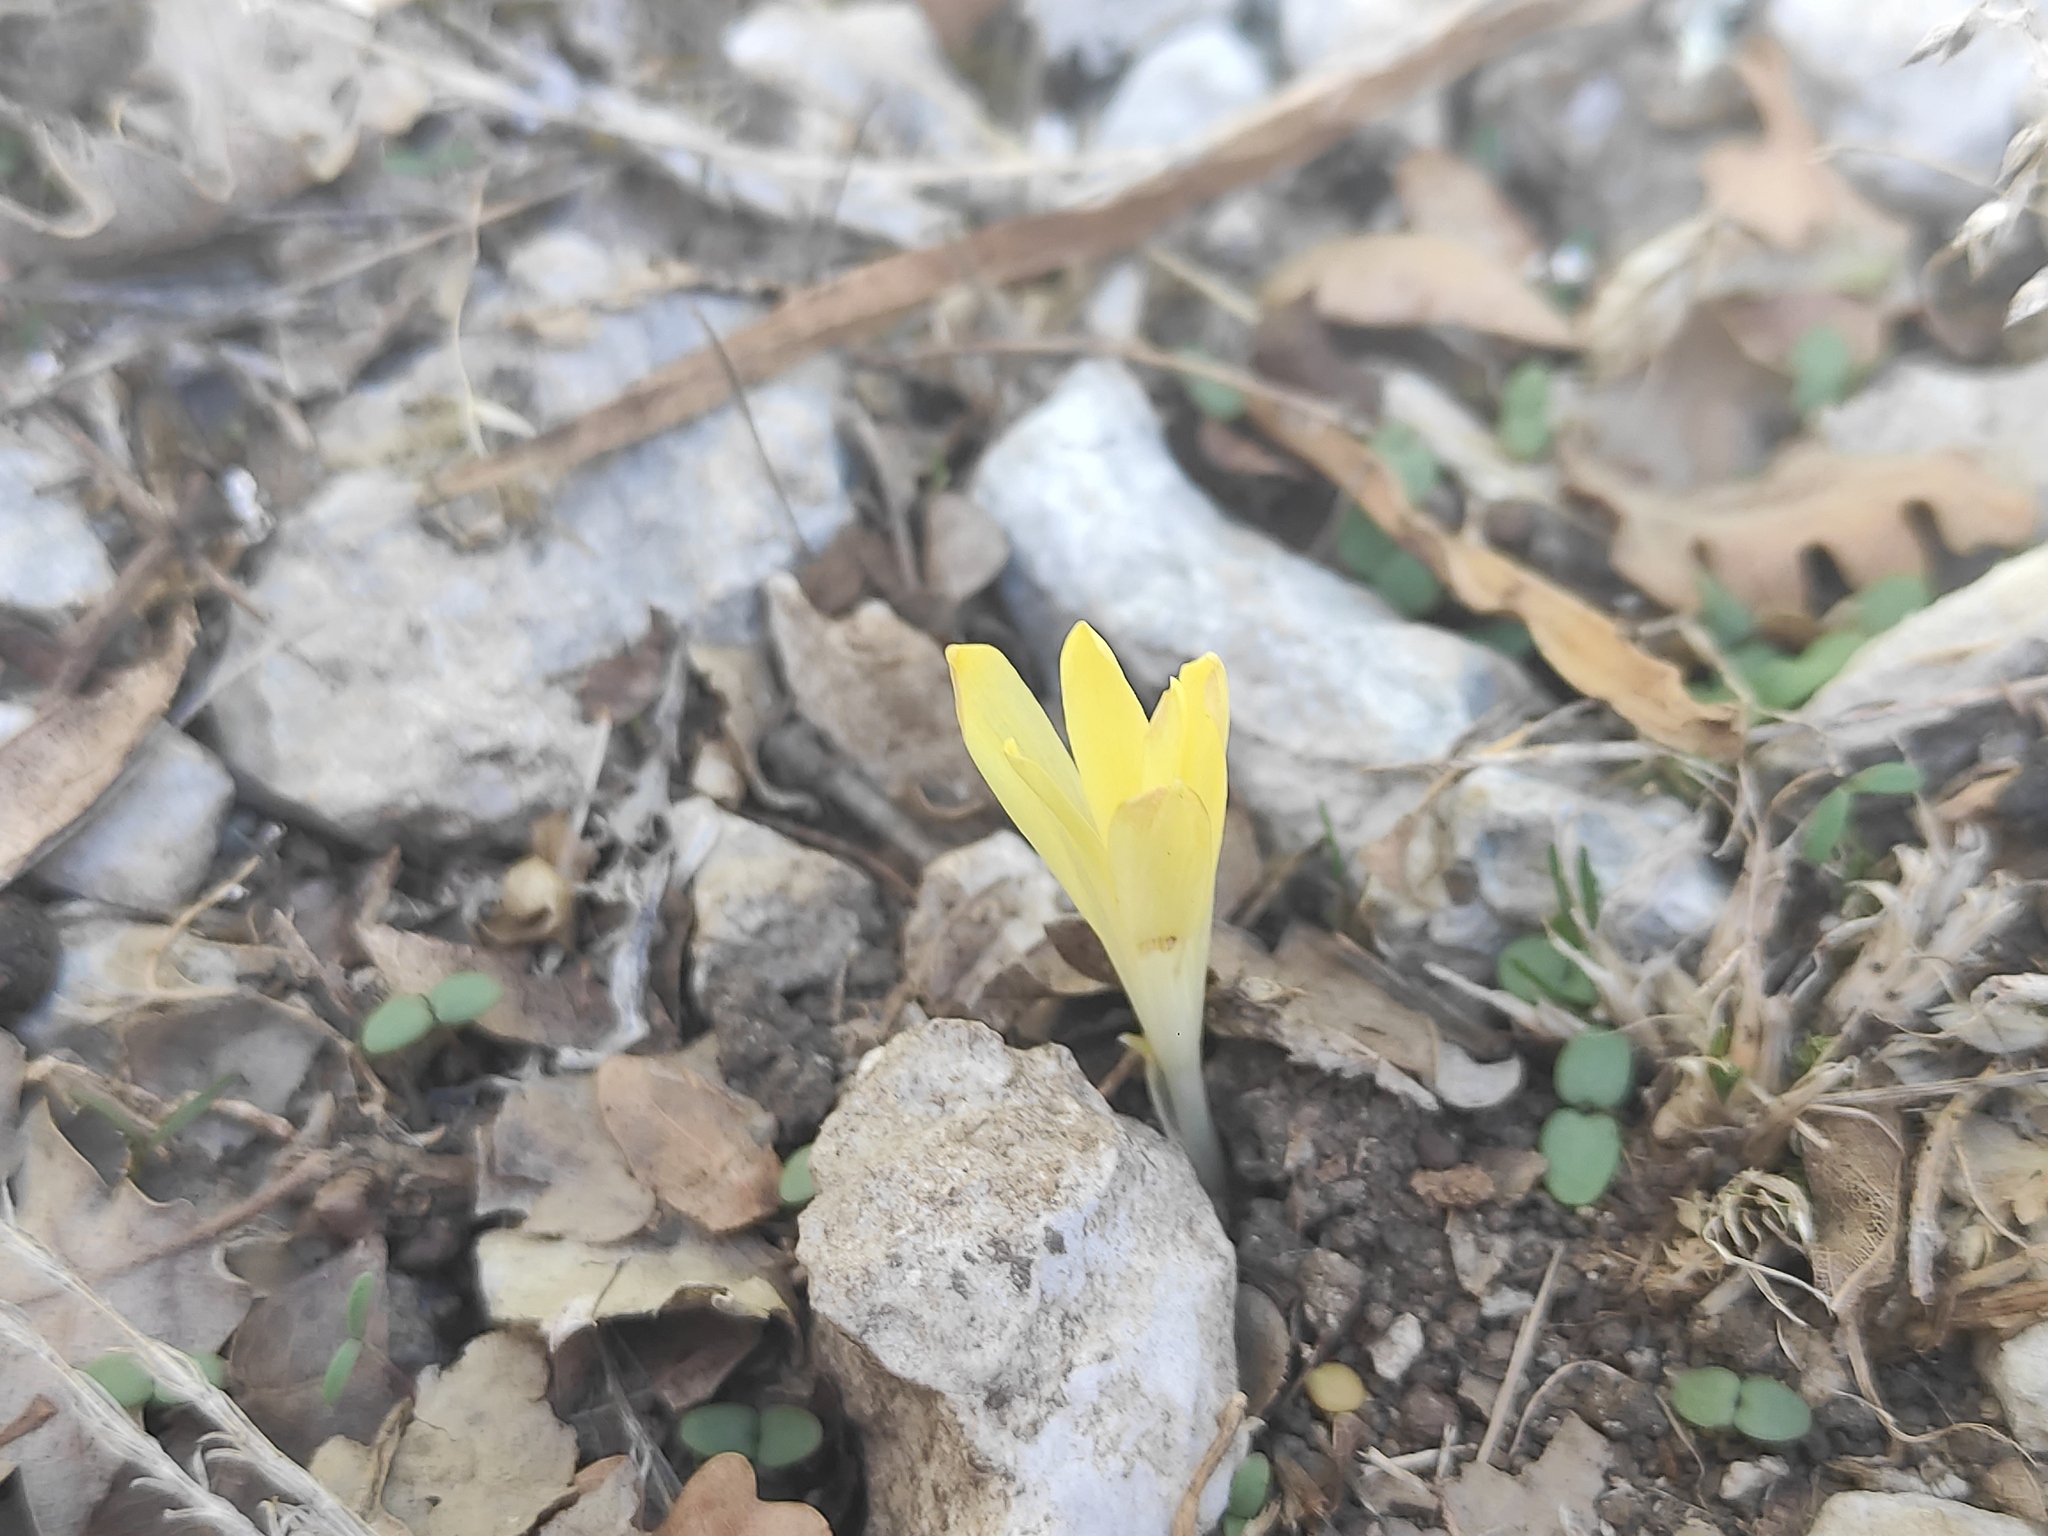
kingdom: Plantae
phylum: Tracheophyta
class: Liliopsida
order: Asparagales
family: Amaryllidaceae
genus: Sternbergia
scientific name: Sternbergia colchiciflora
